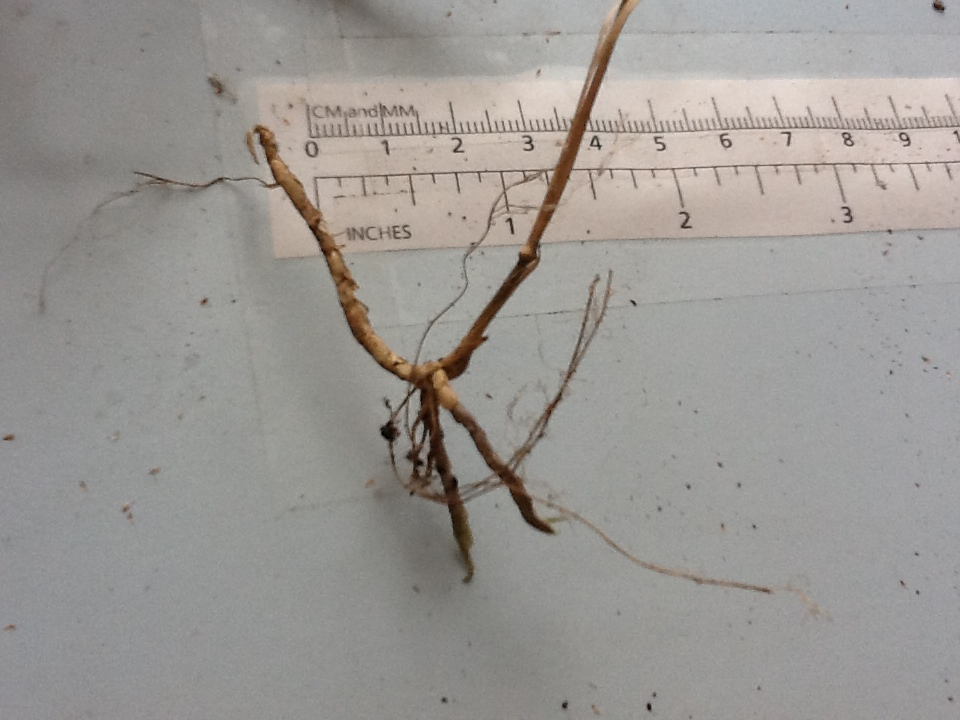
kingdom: Plantae
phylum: Tracheophyta
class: Liliopsida
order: Poales
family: Poaceae
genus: Muhlenbergia
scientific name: Muhlenbergia tenuiflora
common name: Slender muhly
